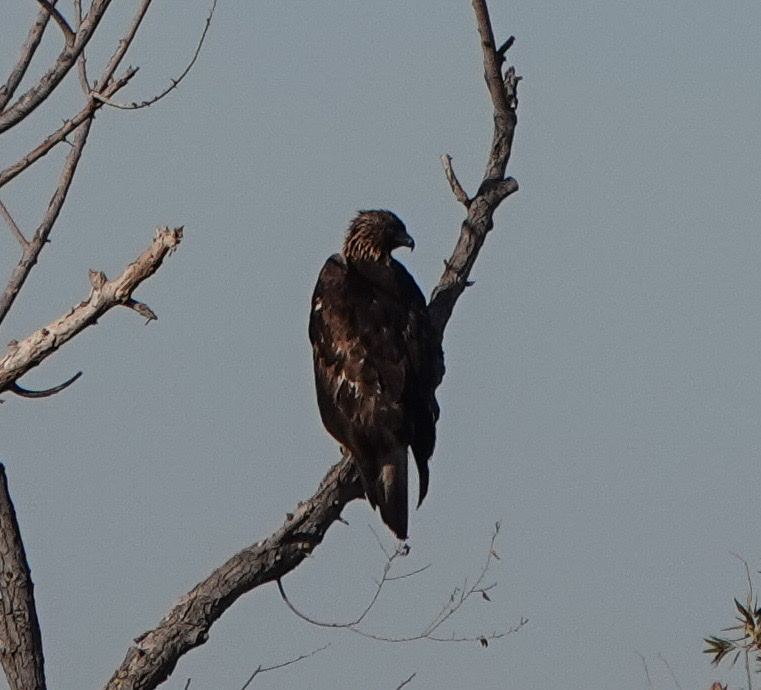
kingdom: Animalia
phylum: Chordata
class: Aves
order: Accipitriformes
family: Accipitridae
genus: Aquila
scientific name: Aquila chrysaetos
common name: Golden eagle
